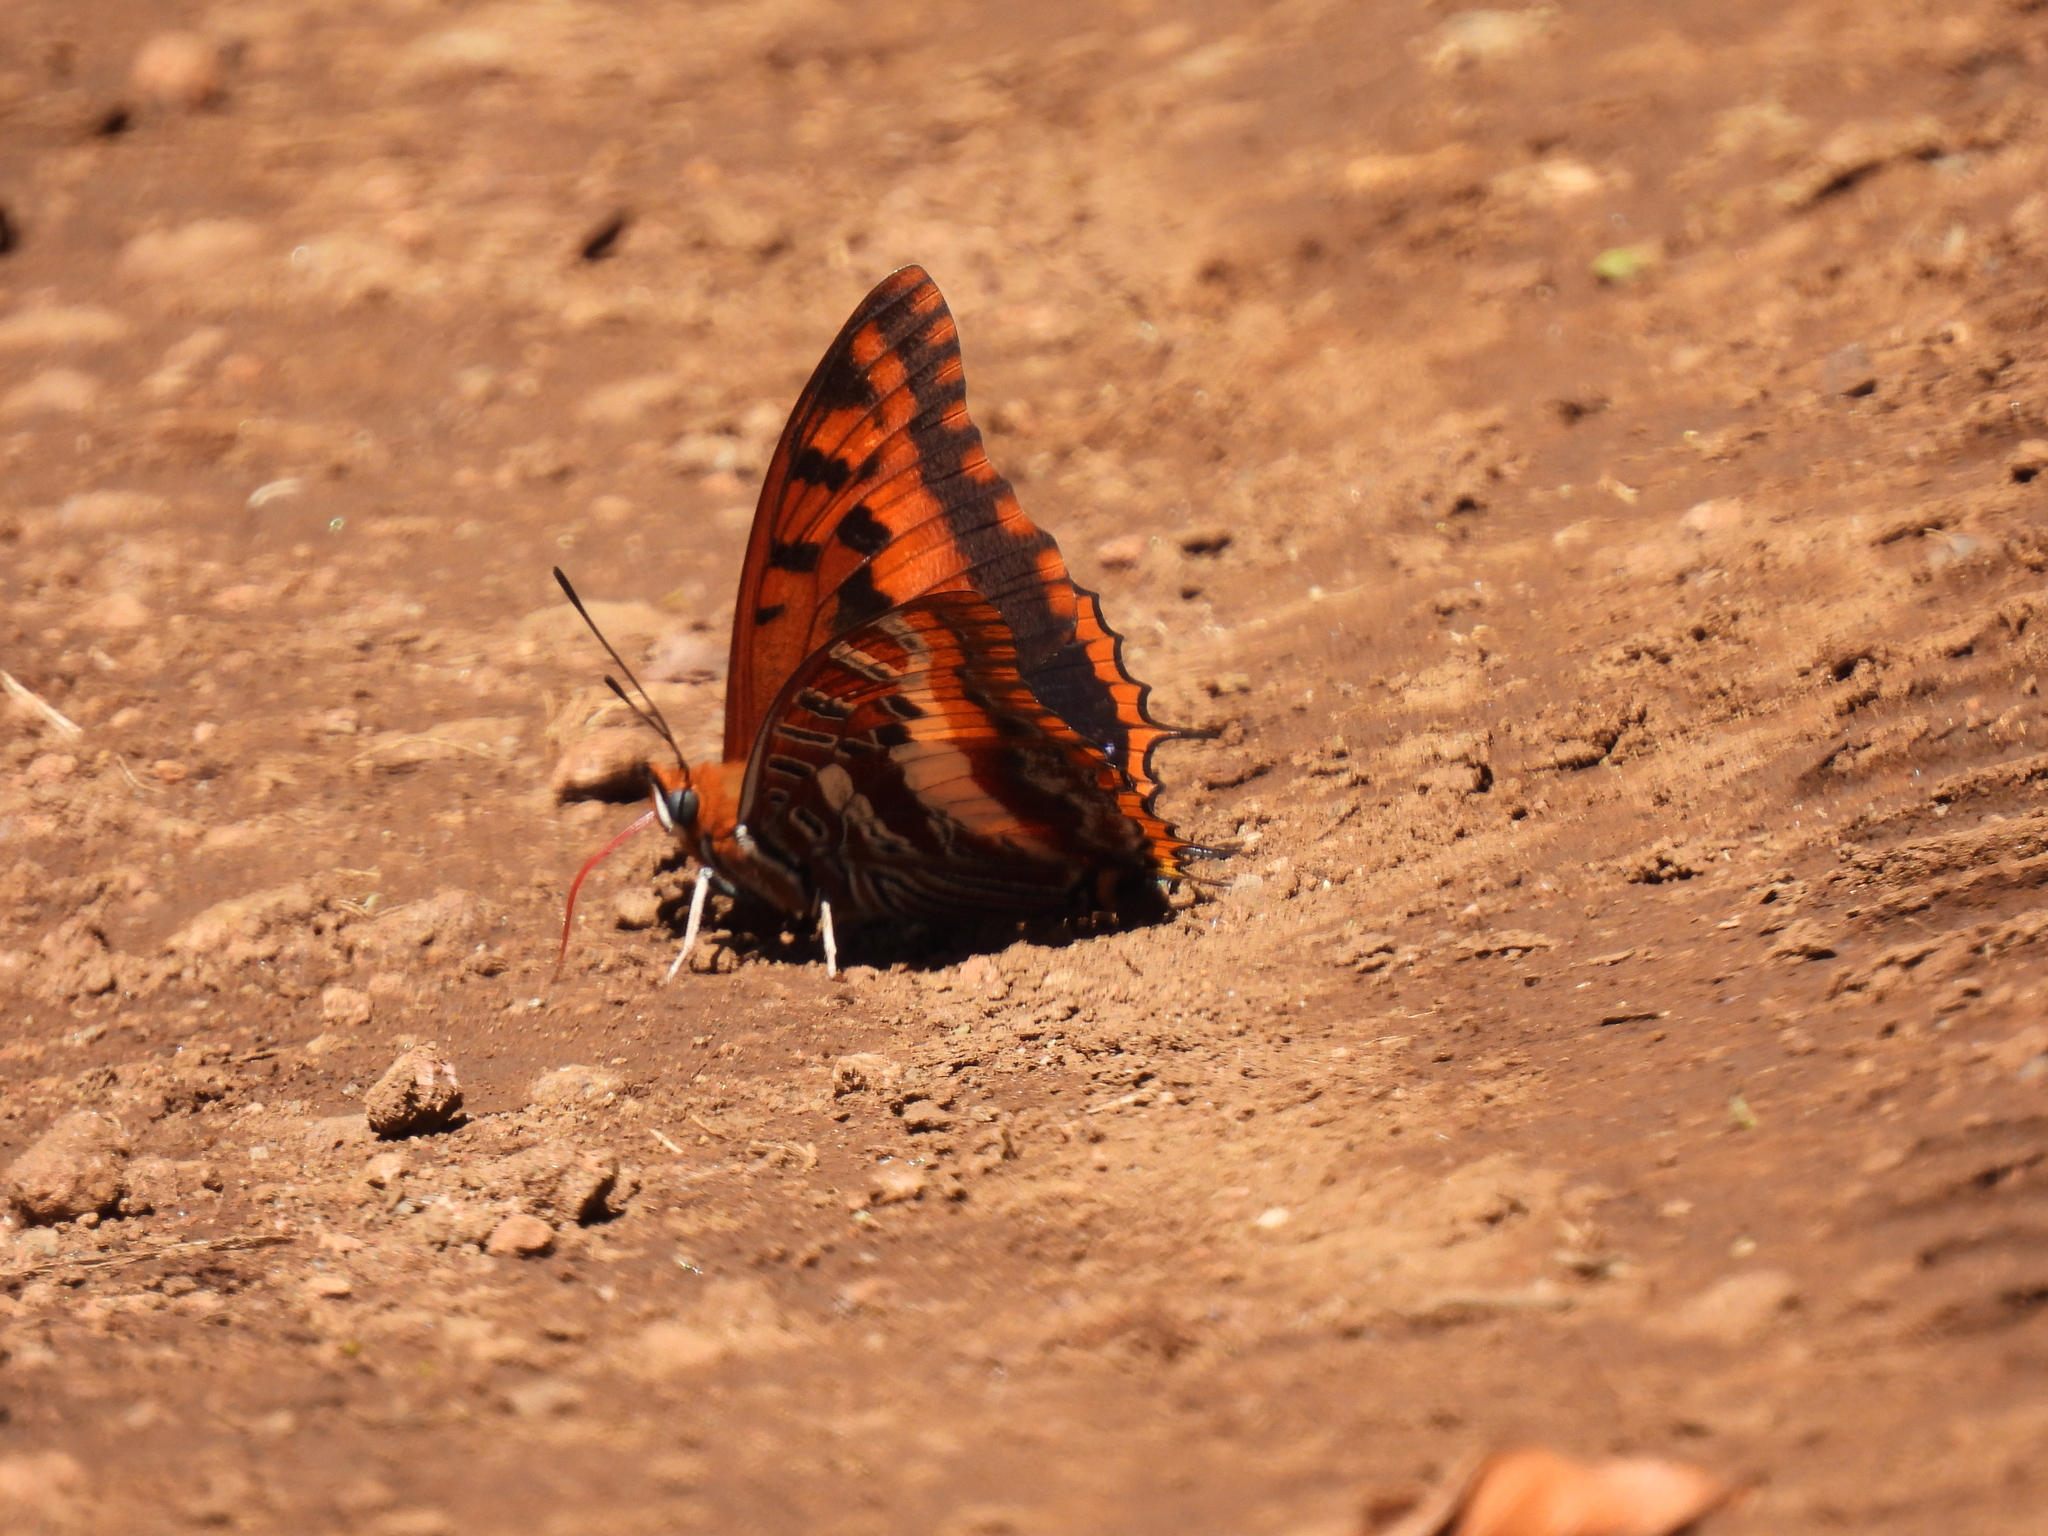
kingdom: Animalia
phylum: Arthropoda
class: Insecta
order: Lepidoptera
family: Nymphalidae
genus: Charaxes
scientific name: Charaxes druceanus
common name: Silver-barred charaxes
